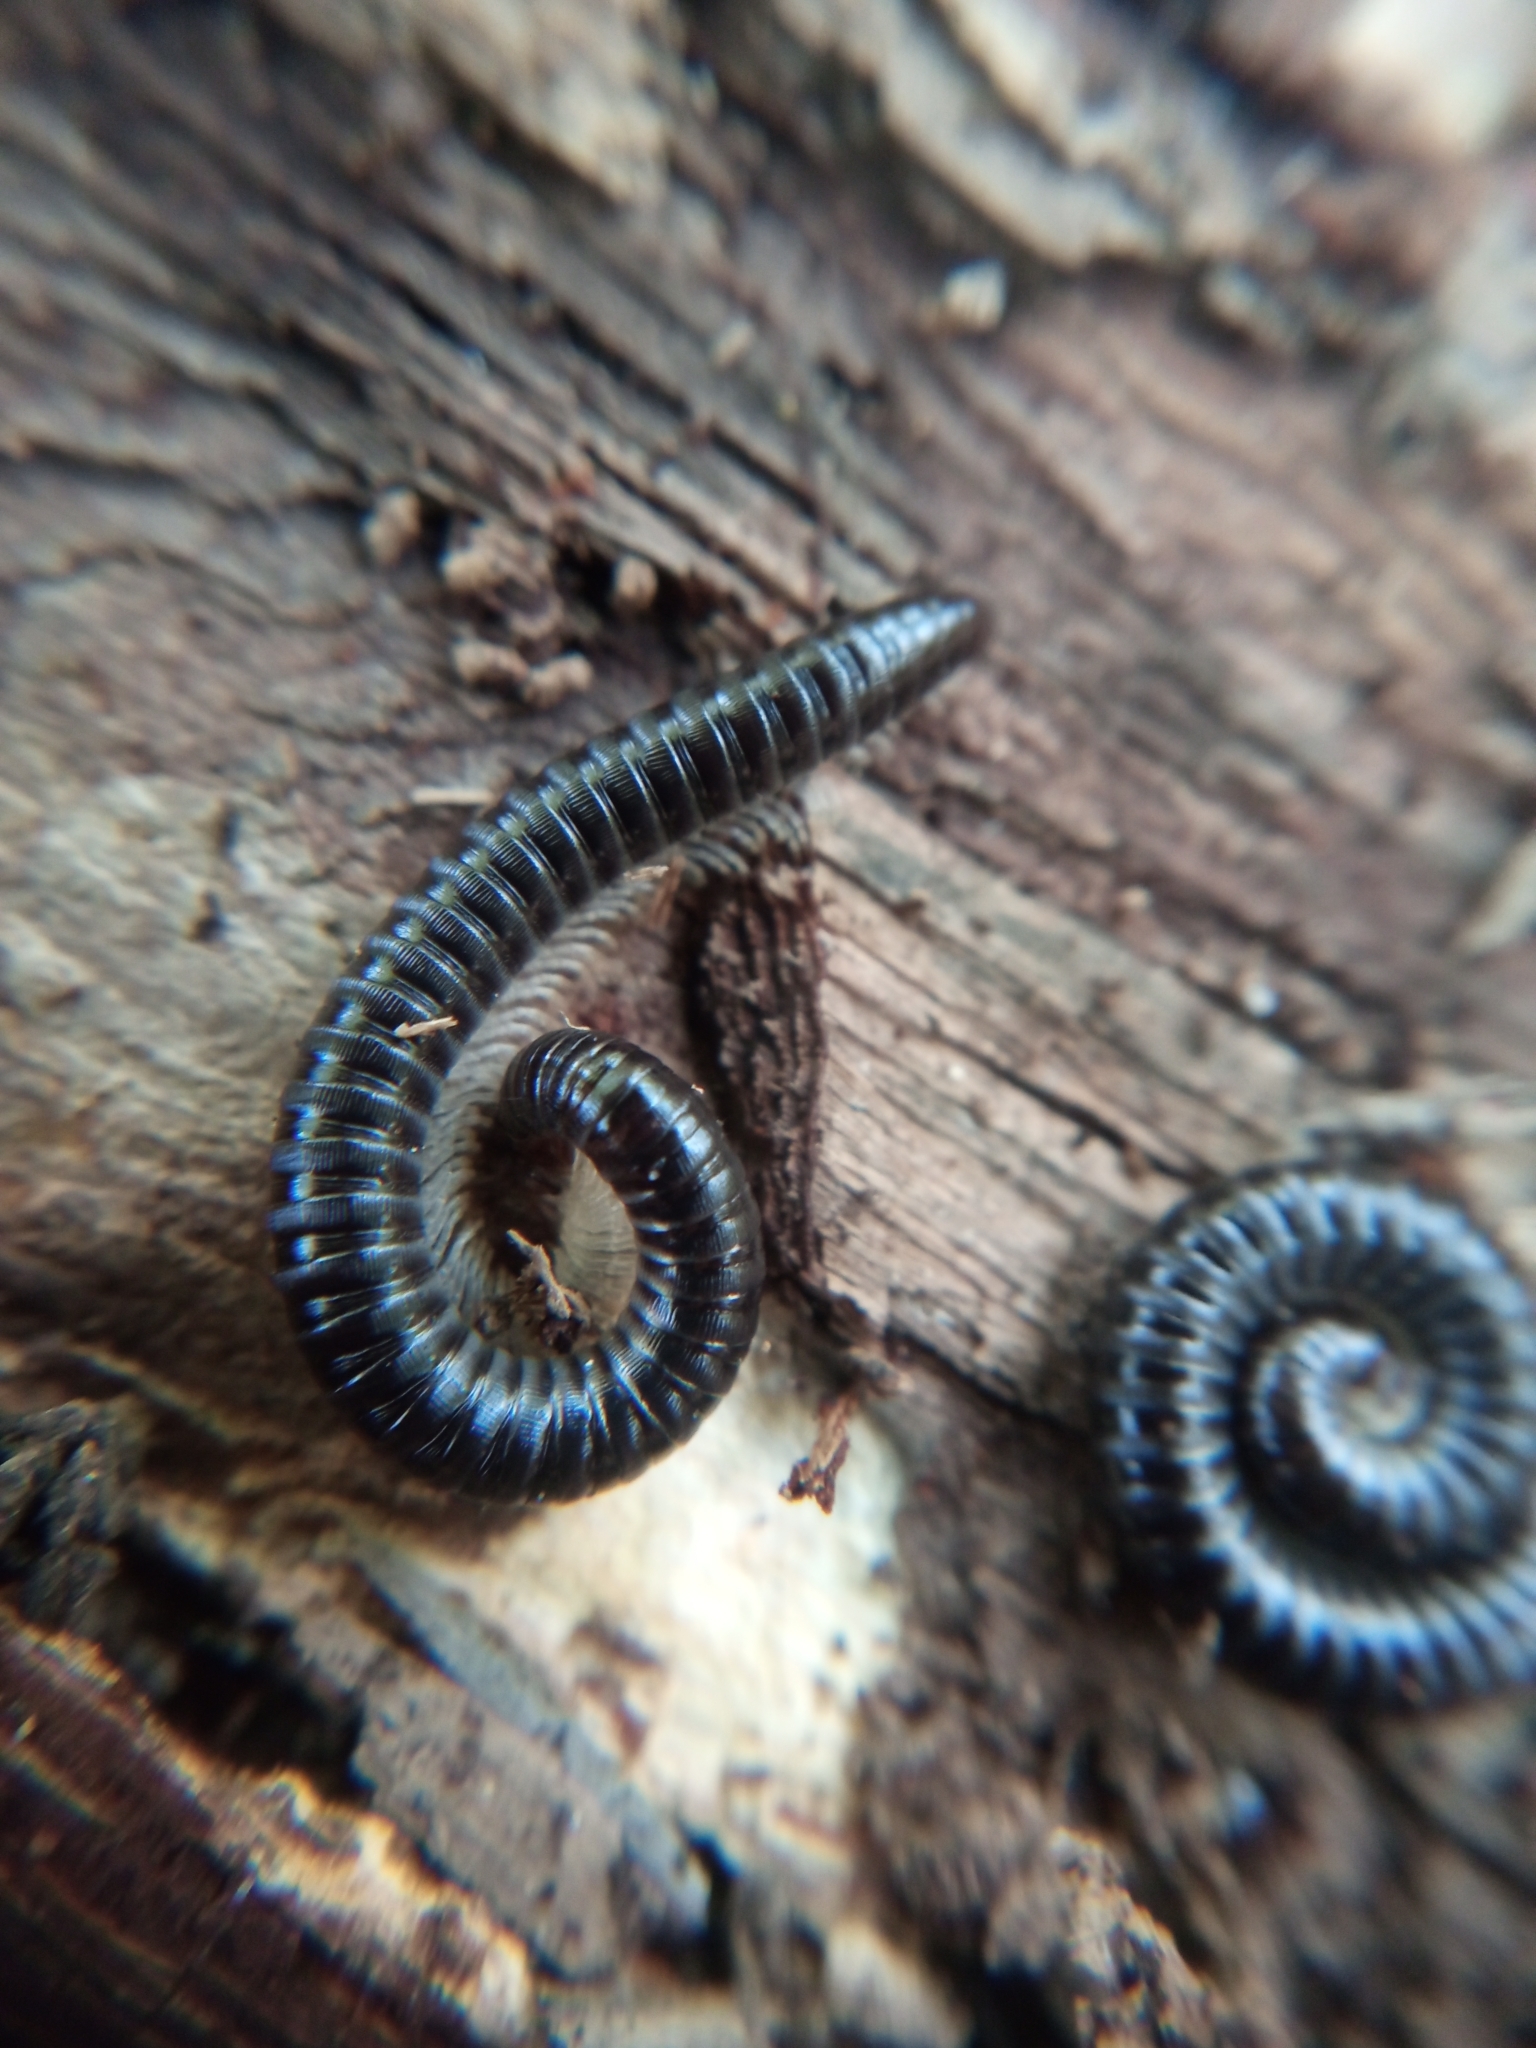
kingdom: Animalia
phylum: Arthropoda
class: Diplopoda
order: Julida
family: Julidae
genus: Tachypodoiulus
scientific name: Tachypodoiulus niger
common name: White-legged snake millipede
